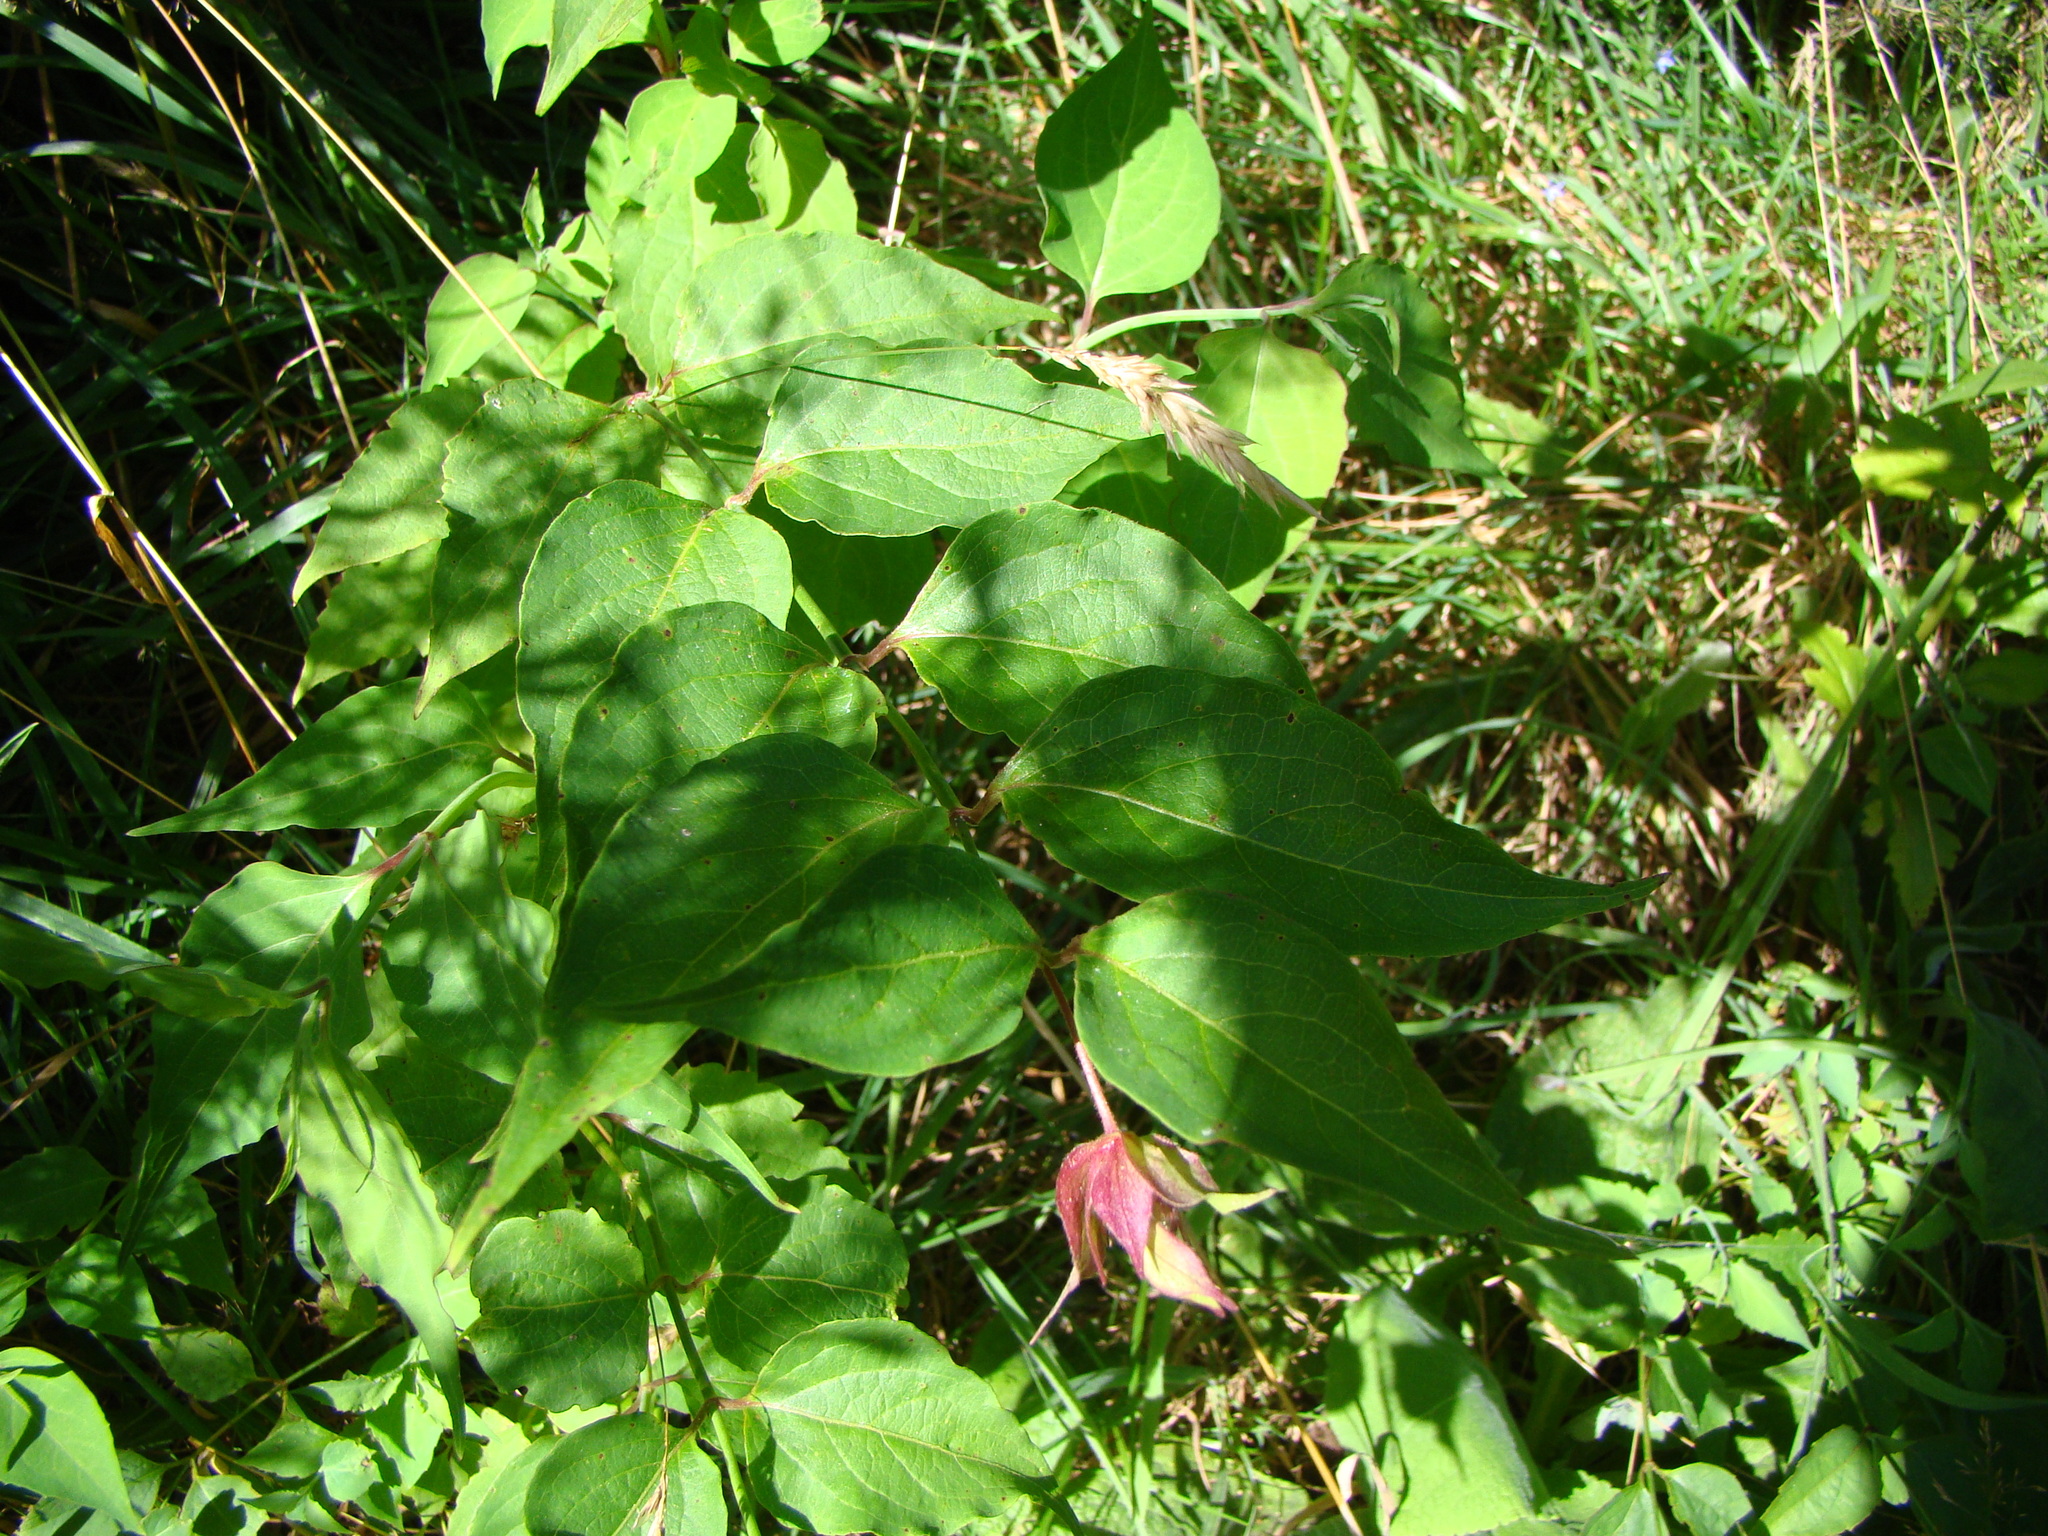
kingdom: Plantae
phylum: Tracheophyta
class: Magnoliopsida
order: Dipsacales
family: Caprifoliaceae
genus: Leycesteria
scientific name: Leycesteria formosa
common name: Himalayan honeysuckle
